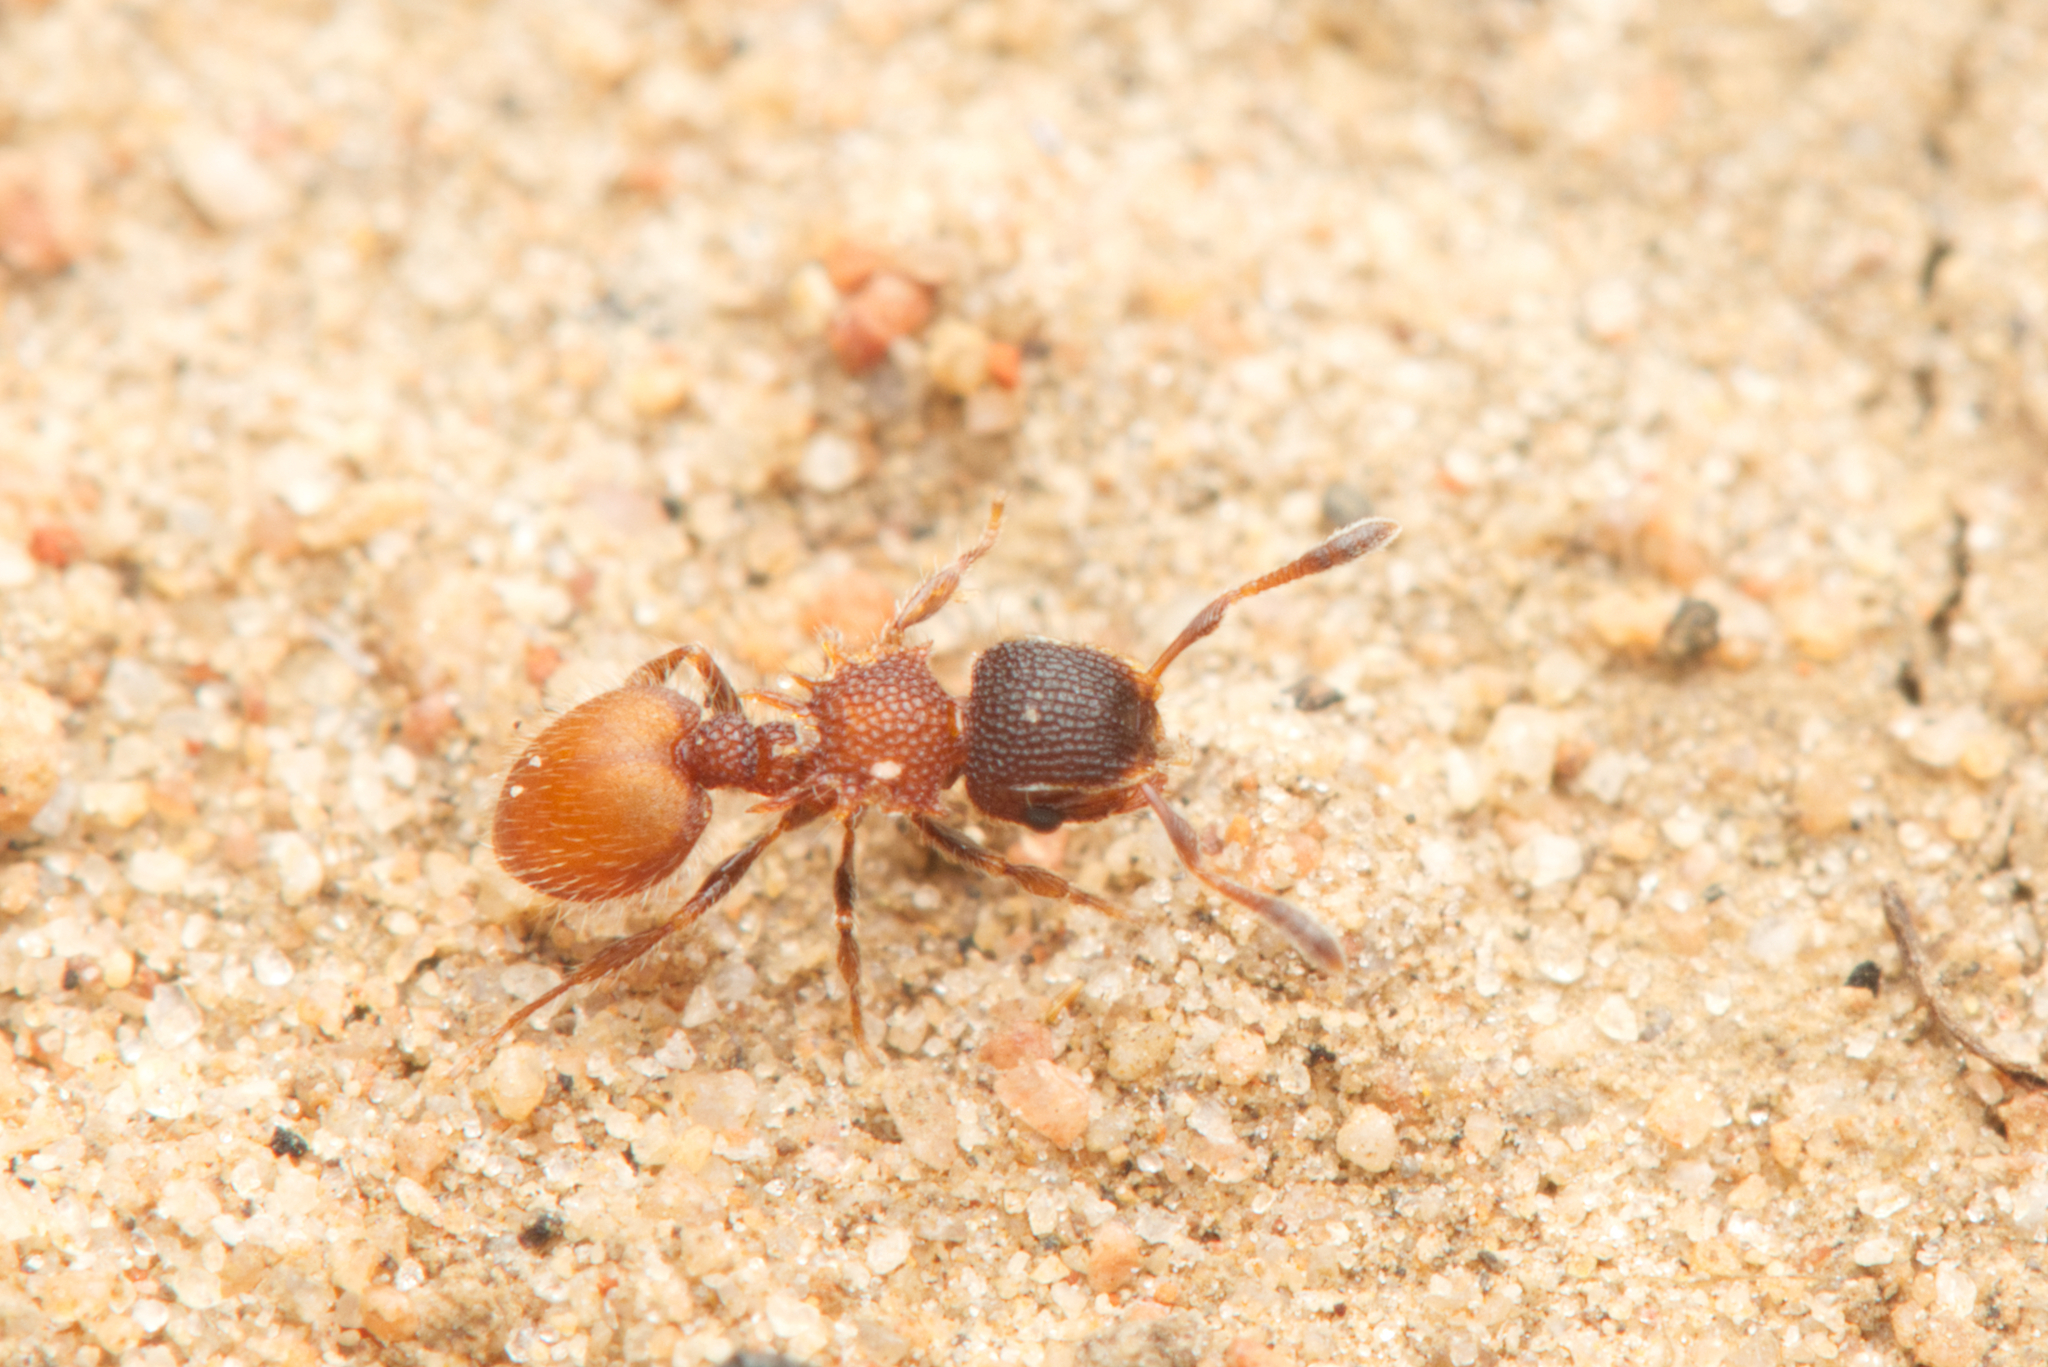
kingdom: Animalia
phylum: Arthropoda
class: Insecta
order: Hymenoptera
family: Formicidae
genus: Meranoplus
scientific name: Meranoplus
